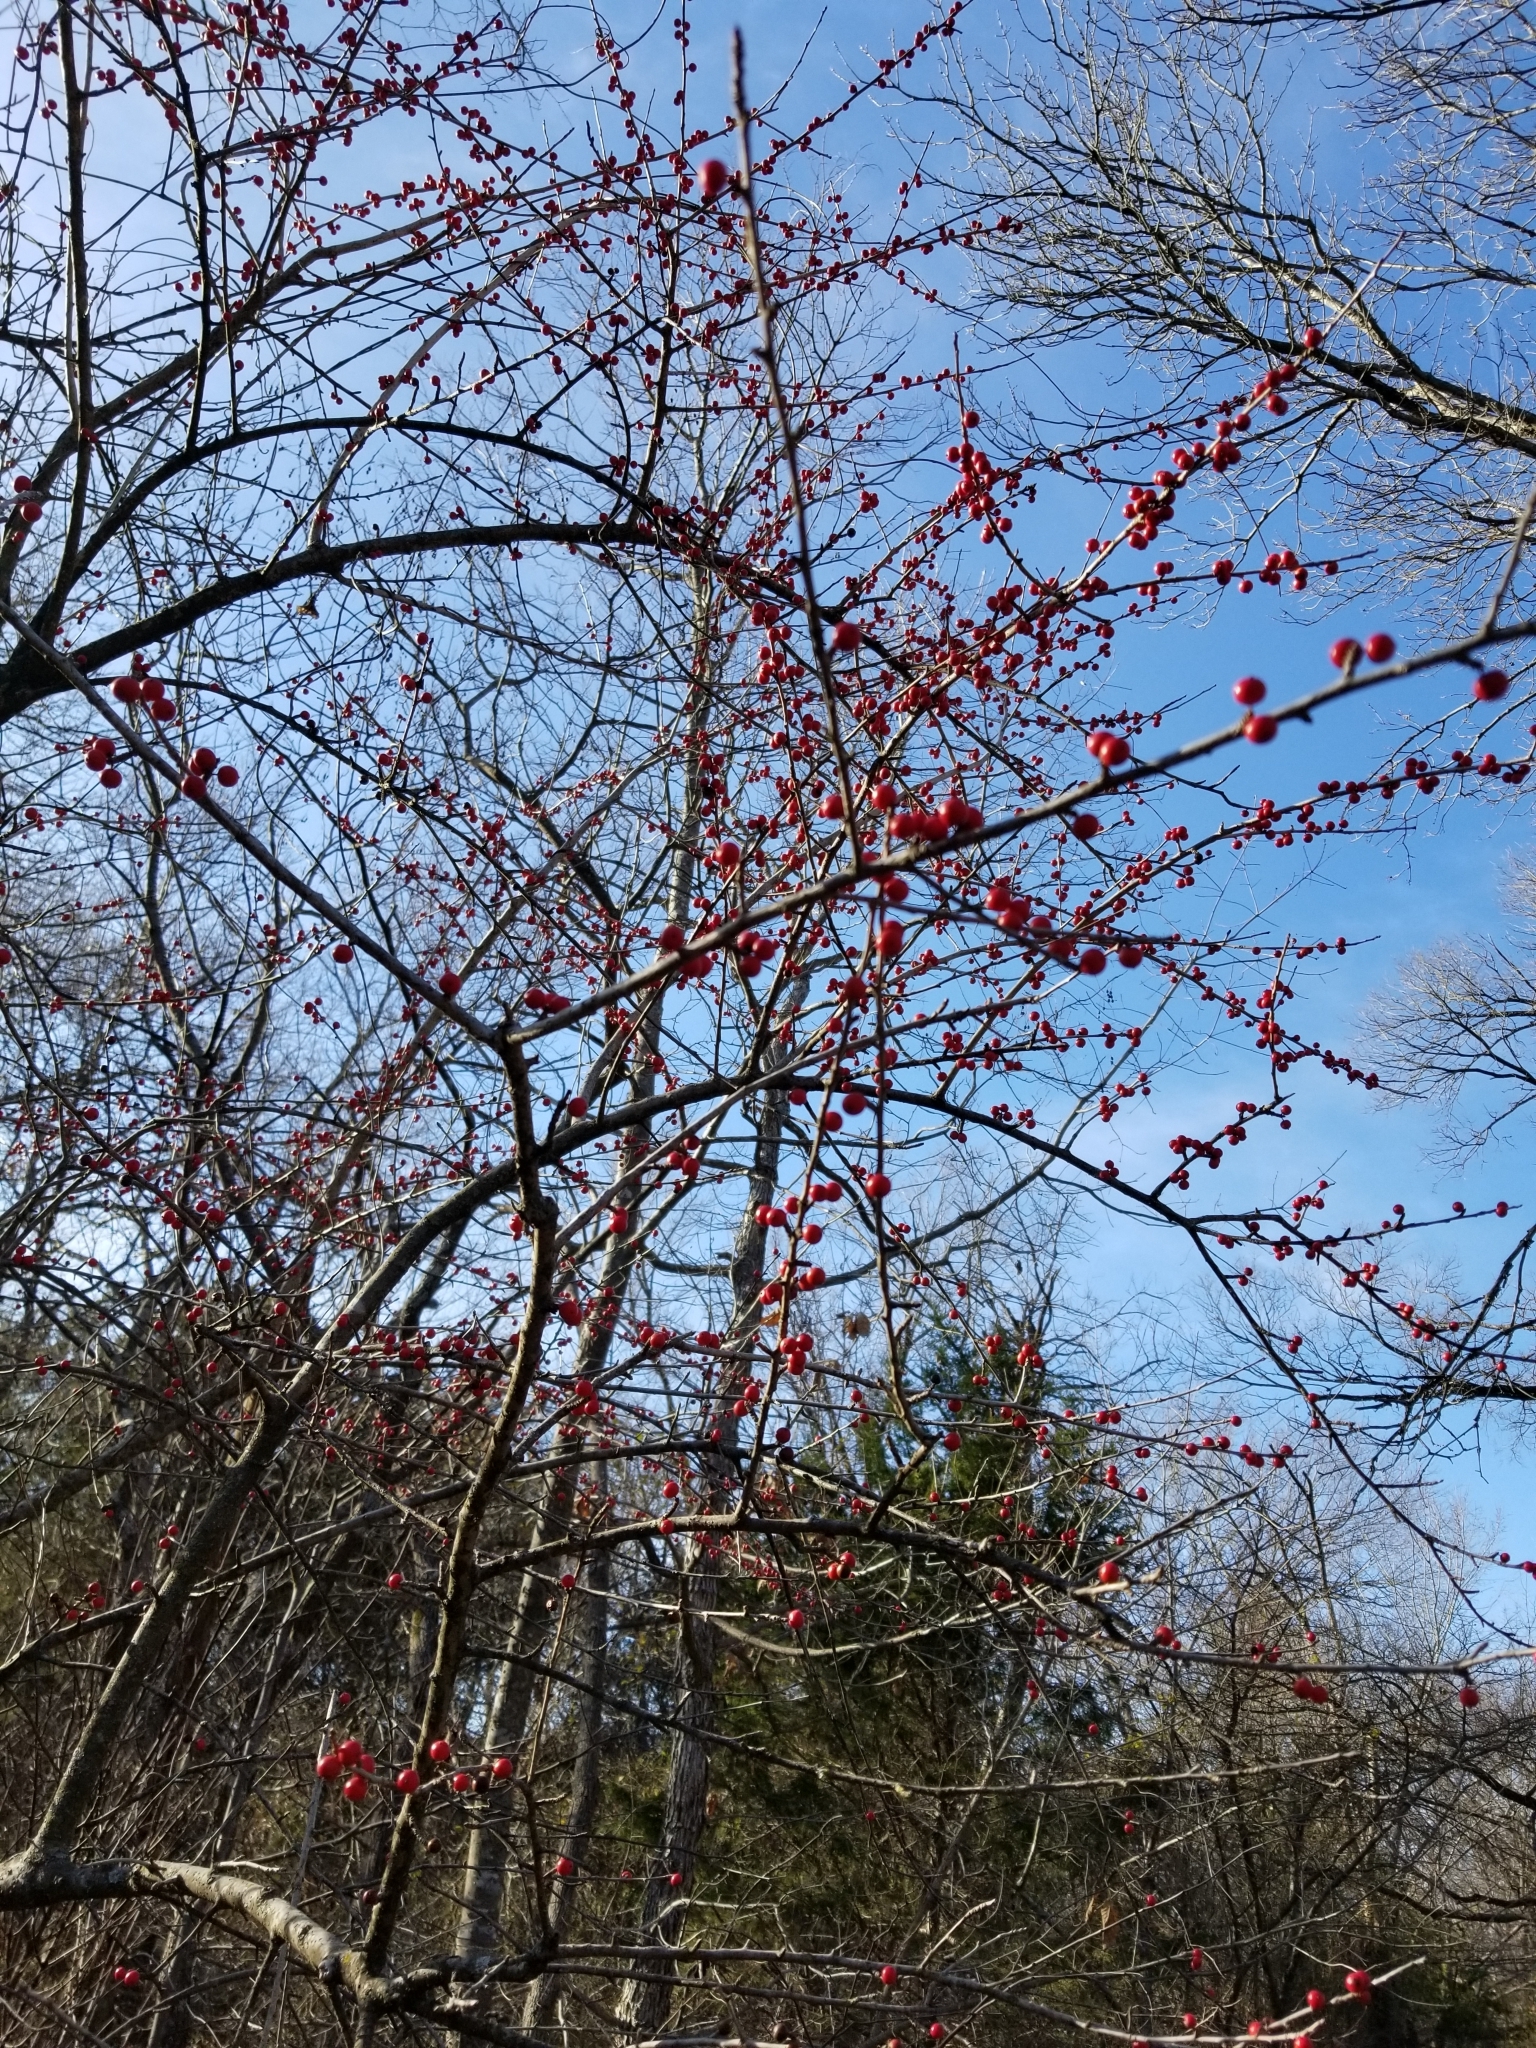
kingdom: Plantae
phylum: Tracheophyta
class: Magnoliopsida
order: Aquifoliales
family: Aquifoliaceae
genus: Ilex
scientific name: Ilex decidua
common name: Possum-haw
